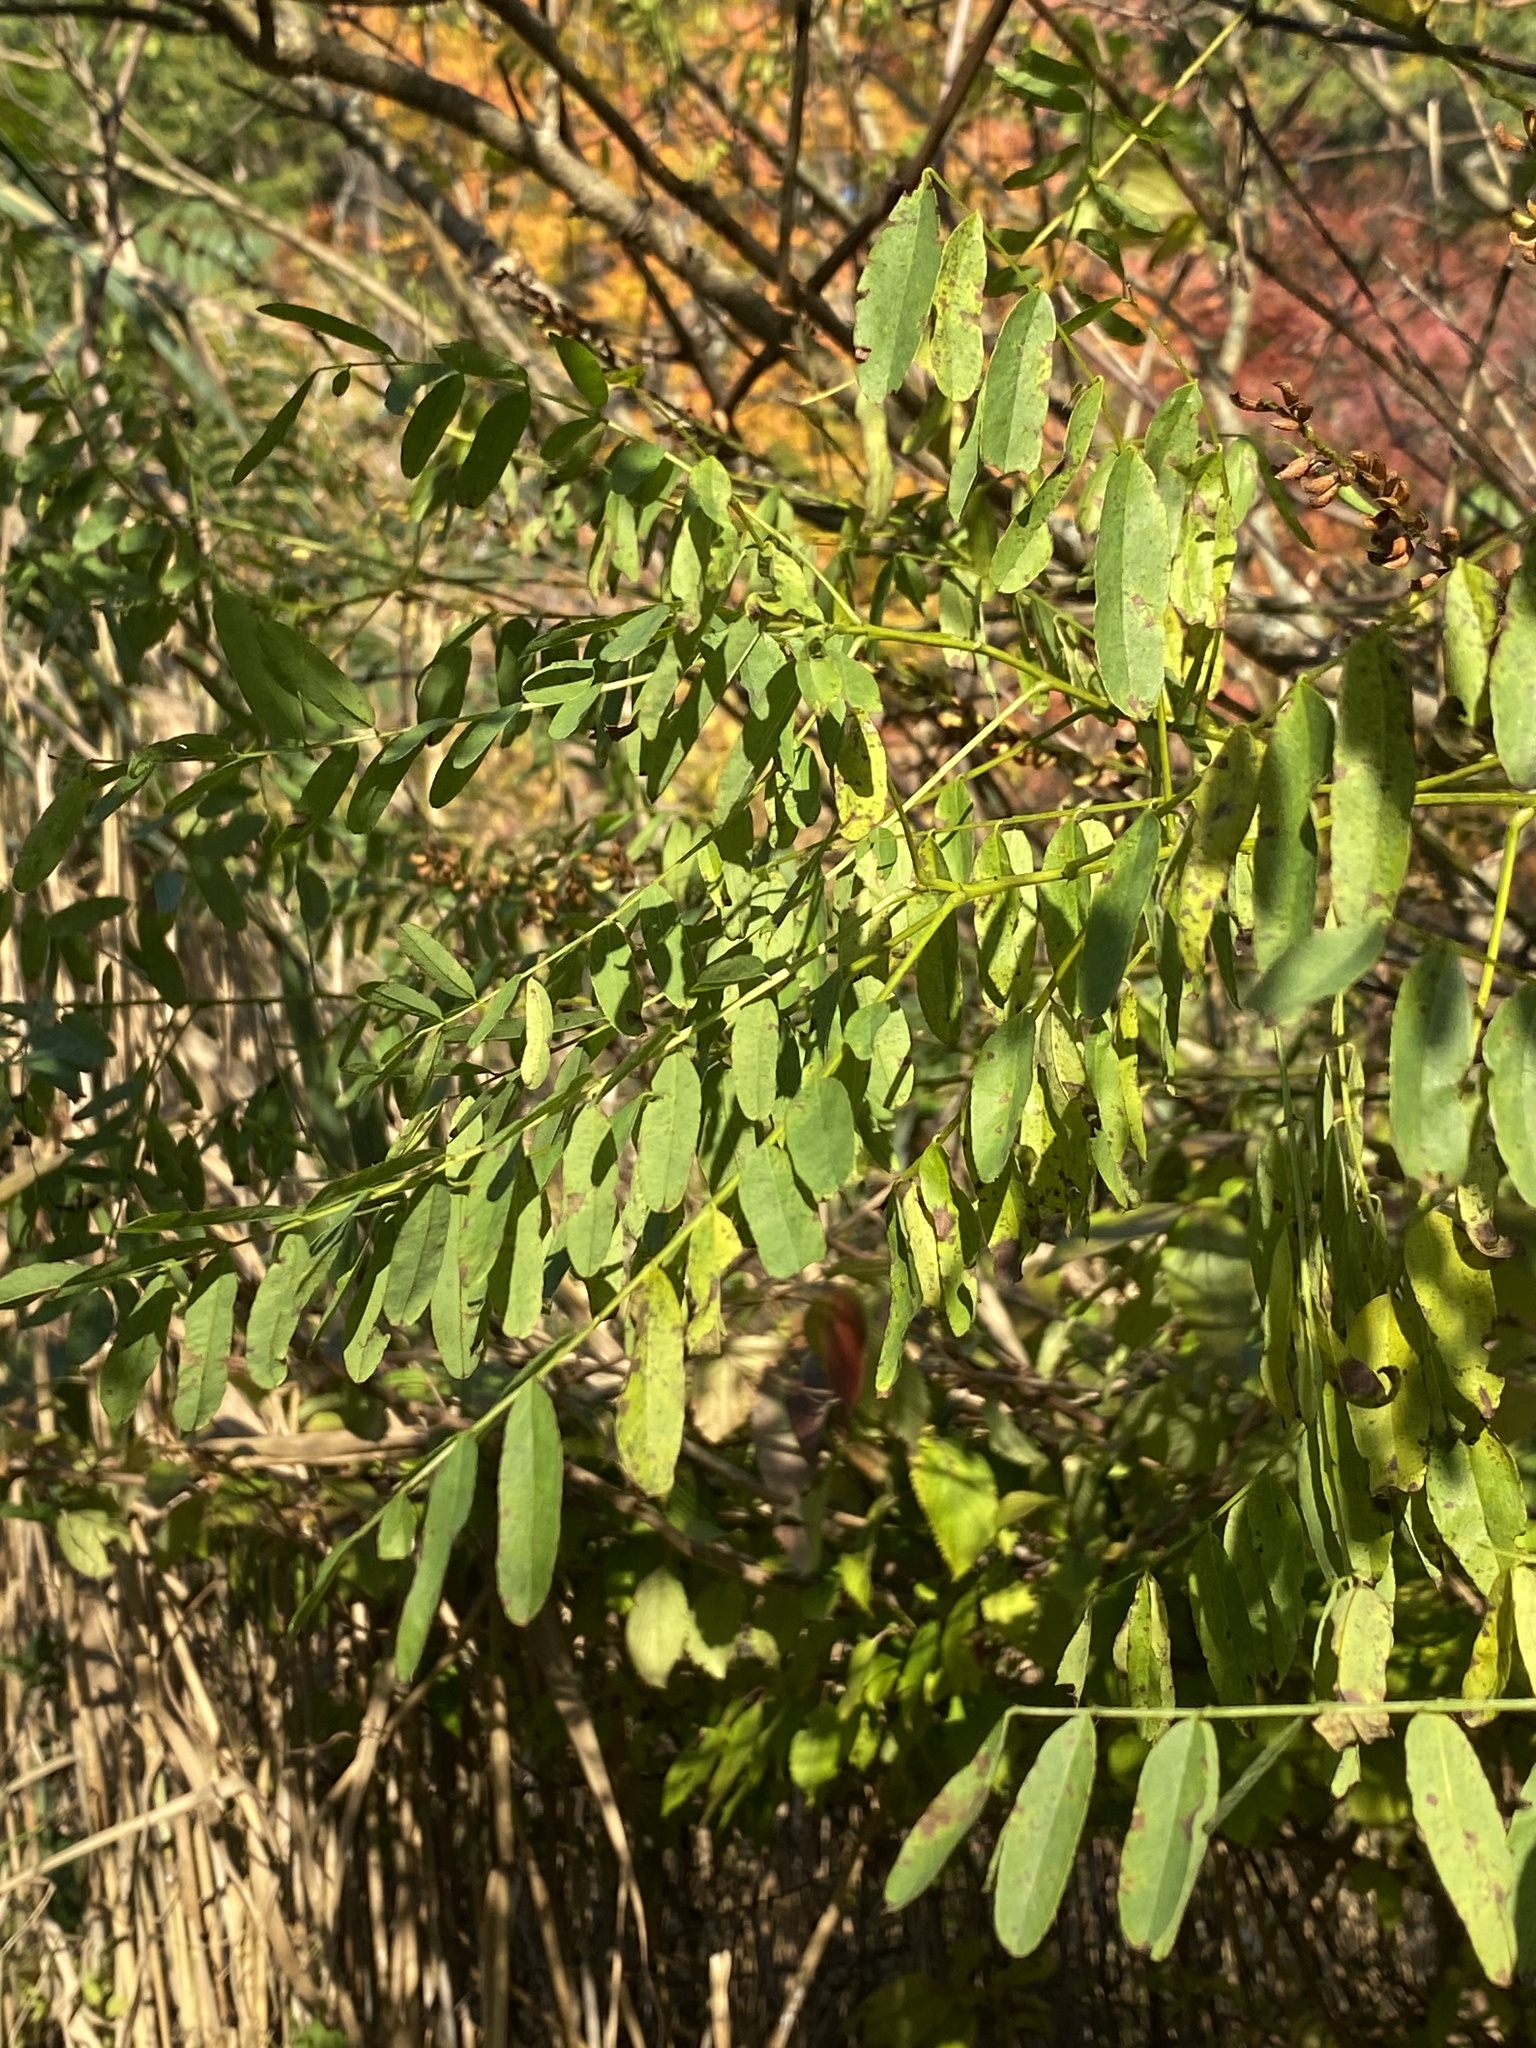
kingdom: Plantae
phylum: Tracheophyta
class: Magnoliopsida
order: Fabales
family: Fabaceae
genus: Amorpha
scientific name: Amorpha fruticosa
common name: False indigo
